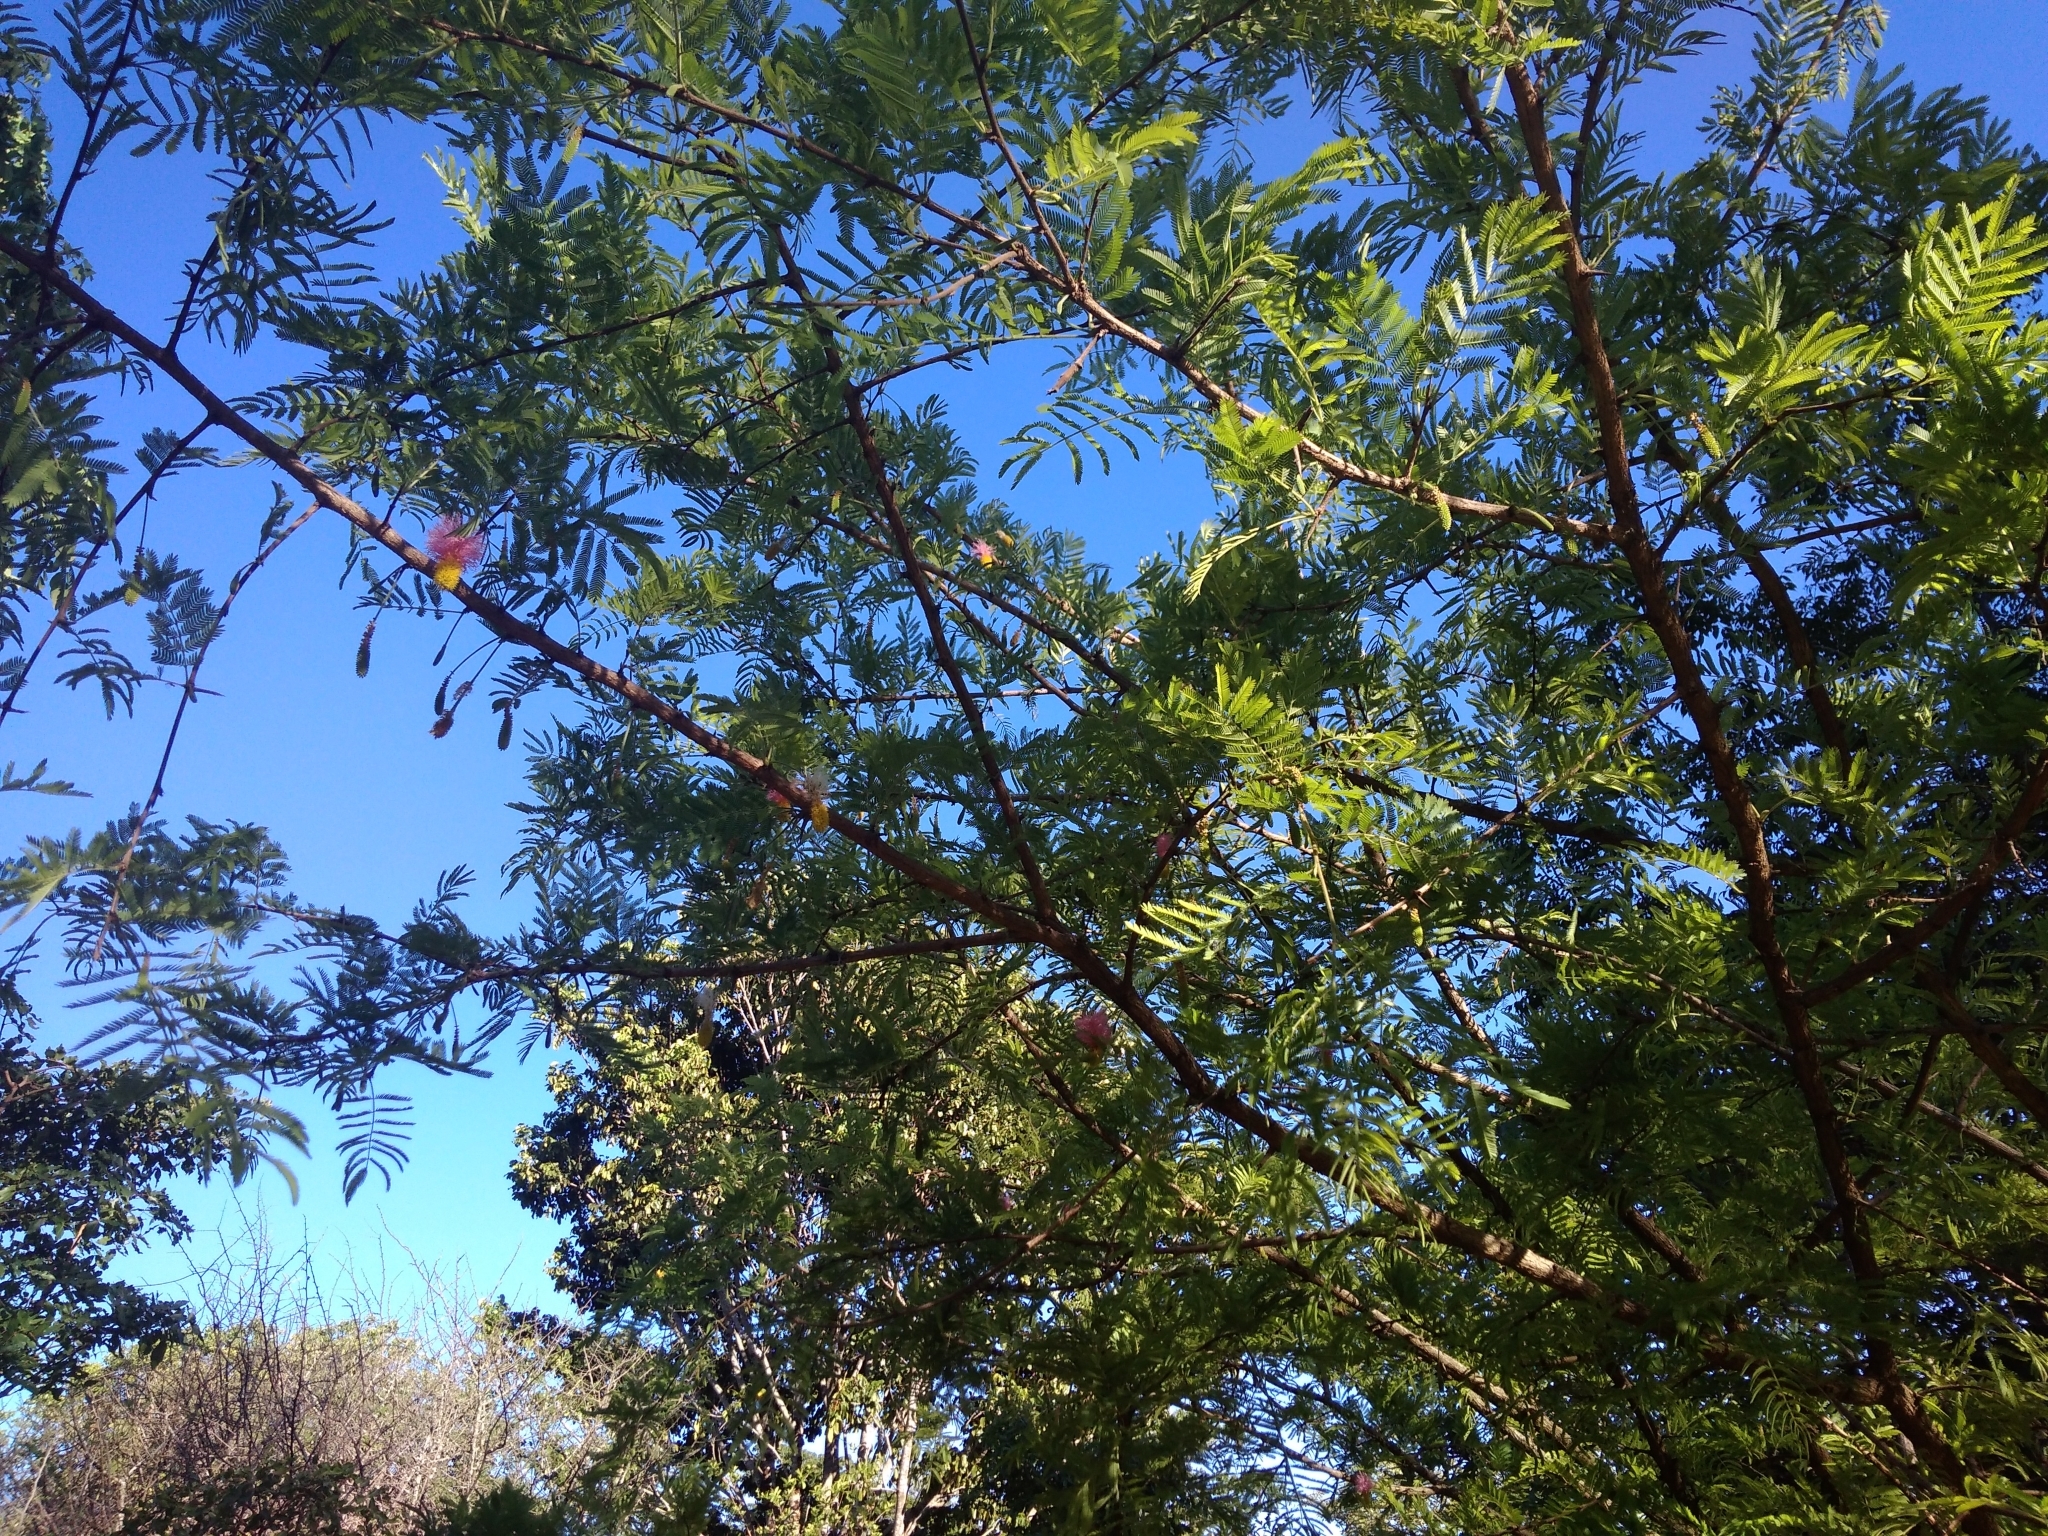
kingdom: Plantae
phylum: Tracheophyta
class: Magnoliopsida
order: Fabales
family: Fabaceae
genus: Dichrostachys
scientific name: Dichrostachys cinerea
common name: Sicklebush
